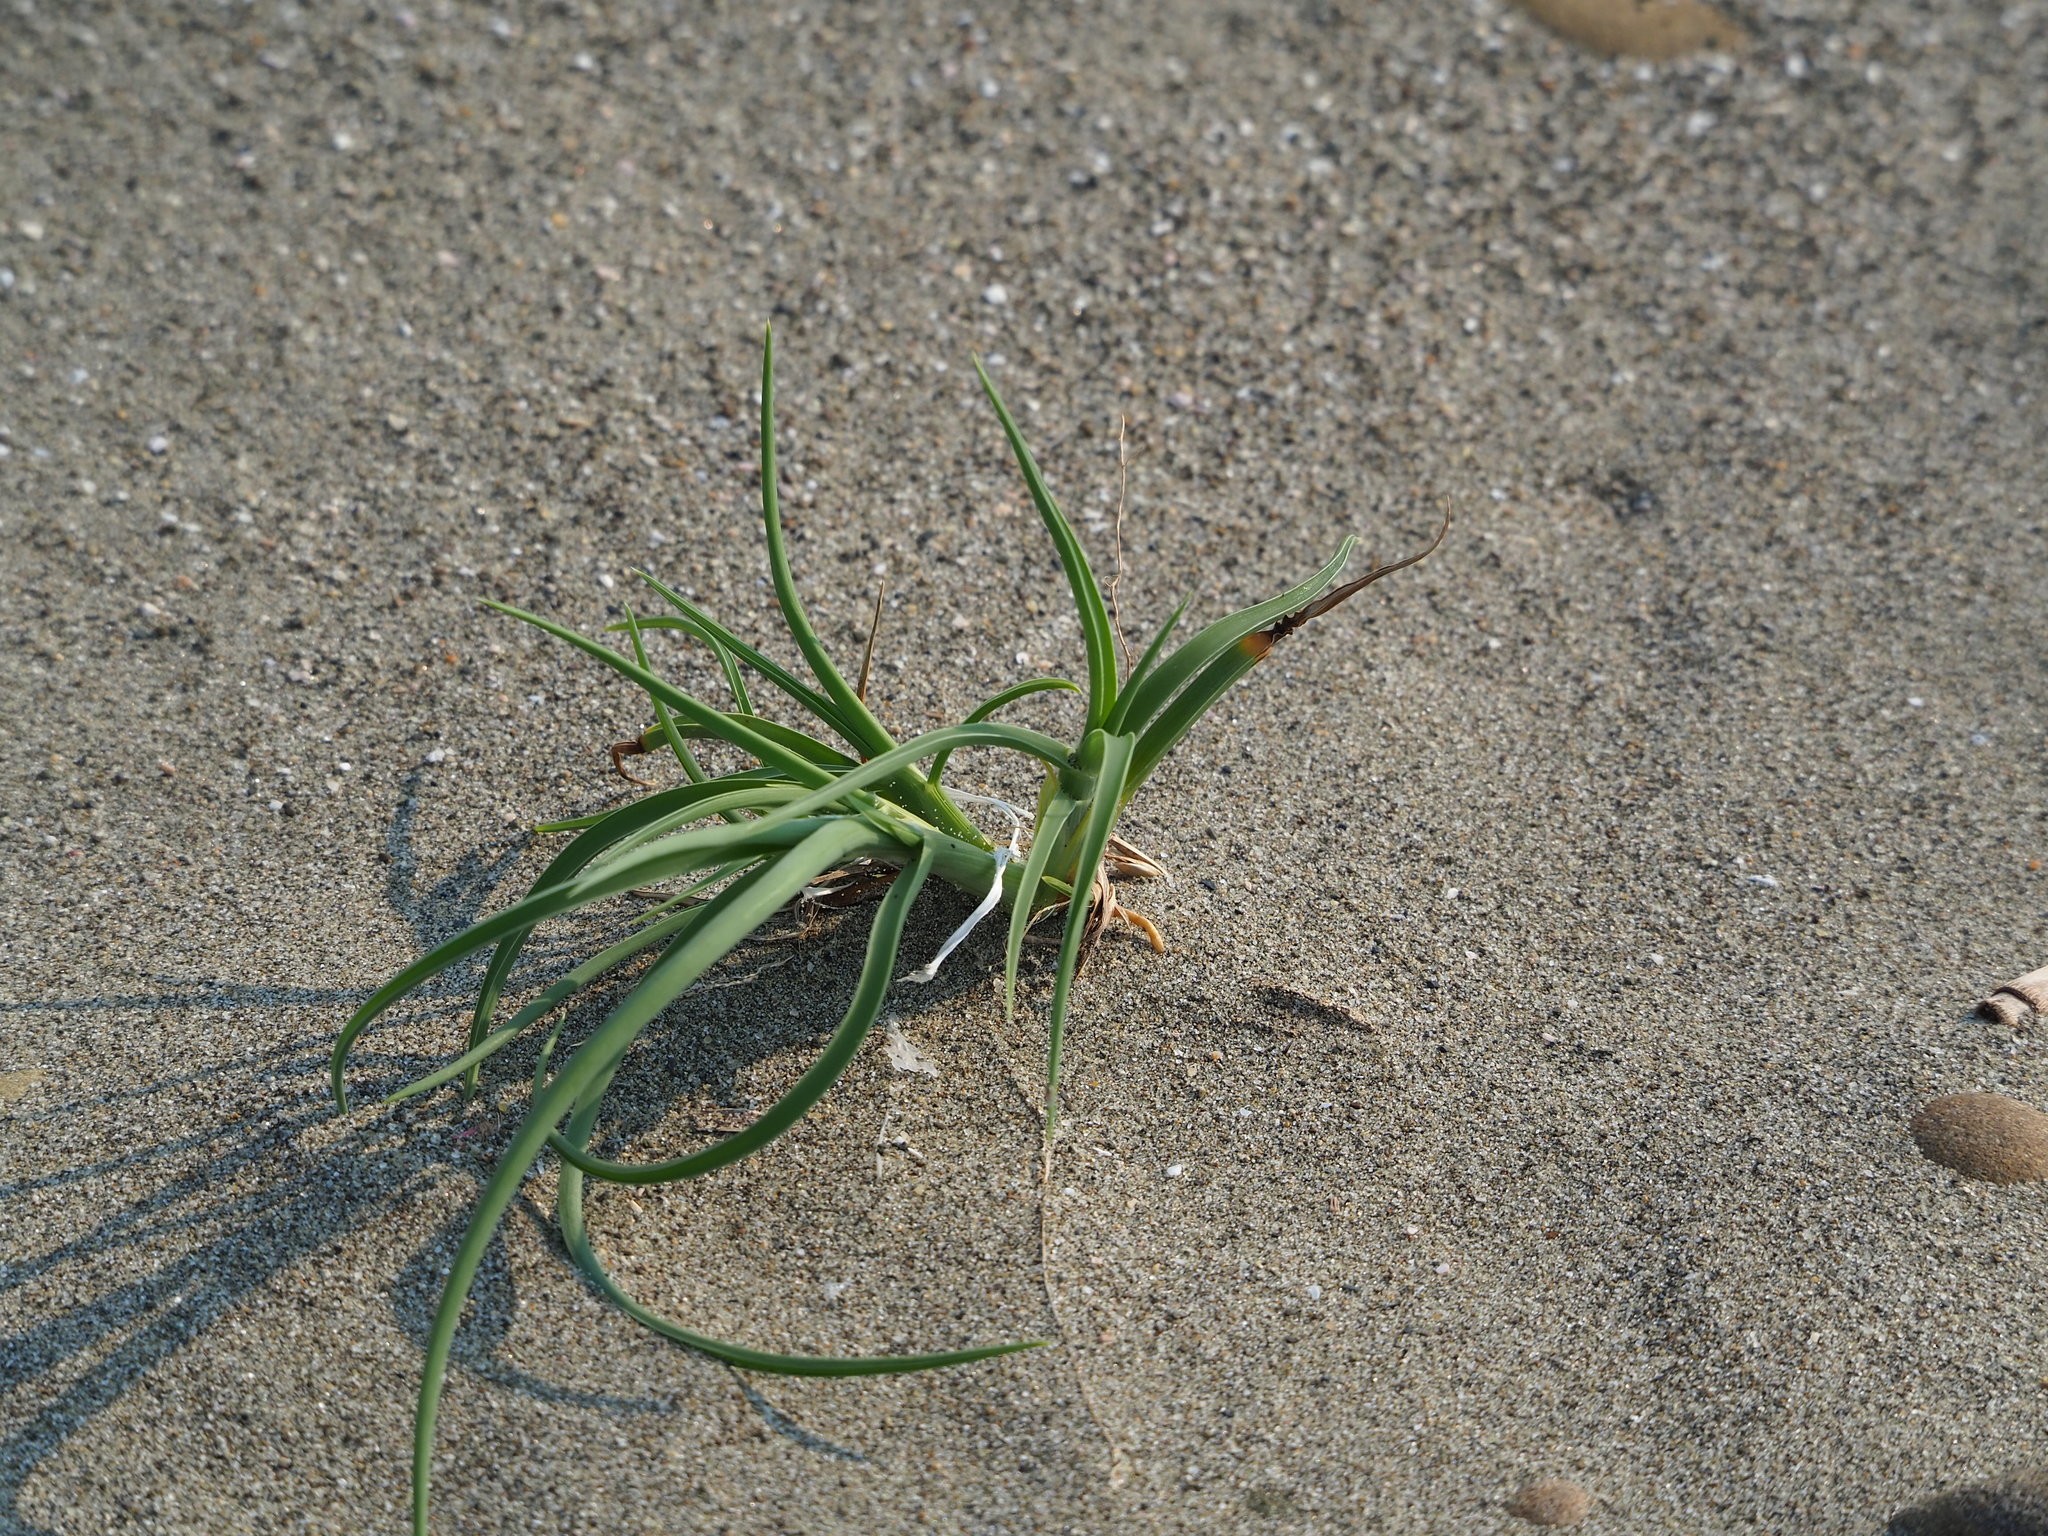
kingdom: Plantae
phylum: Tracheophyta
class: Liliopsida
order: Poales
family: Poaceae
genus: Spinifex
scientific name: Spinifex littoreus
